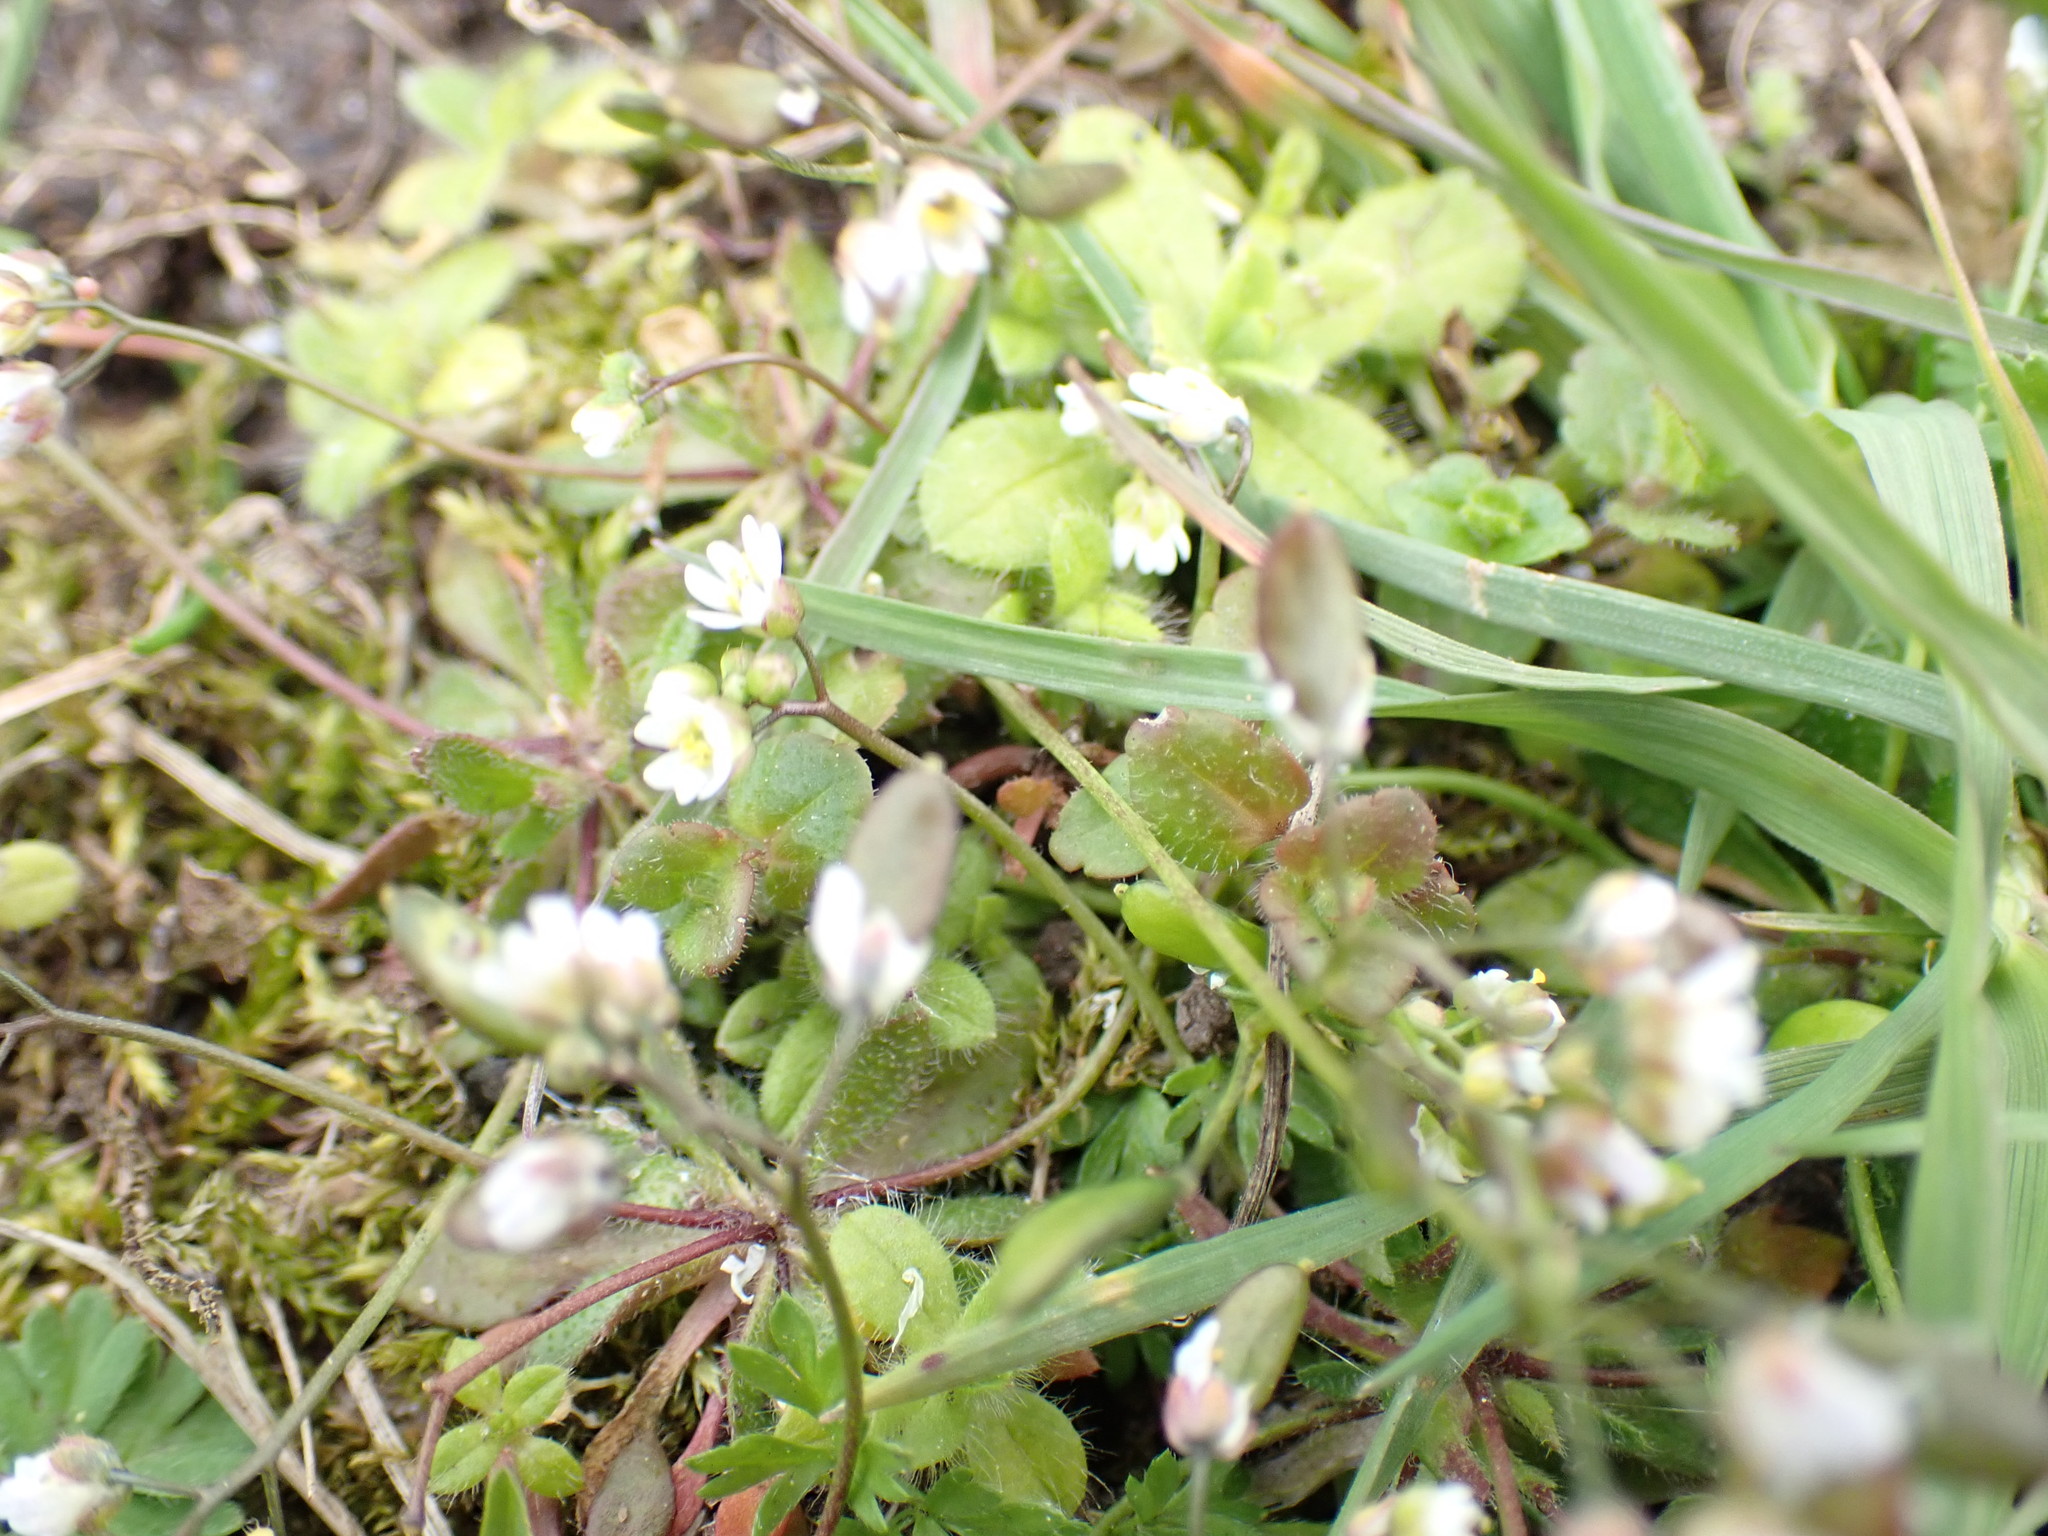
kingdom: Plantae
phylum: Tracheophyta
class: Magnoliopsida
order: Brassicales
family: Brassicaceae
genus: Draba
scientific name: Draba verna
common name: Spring draba
